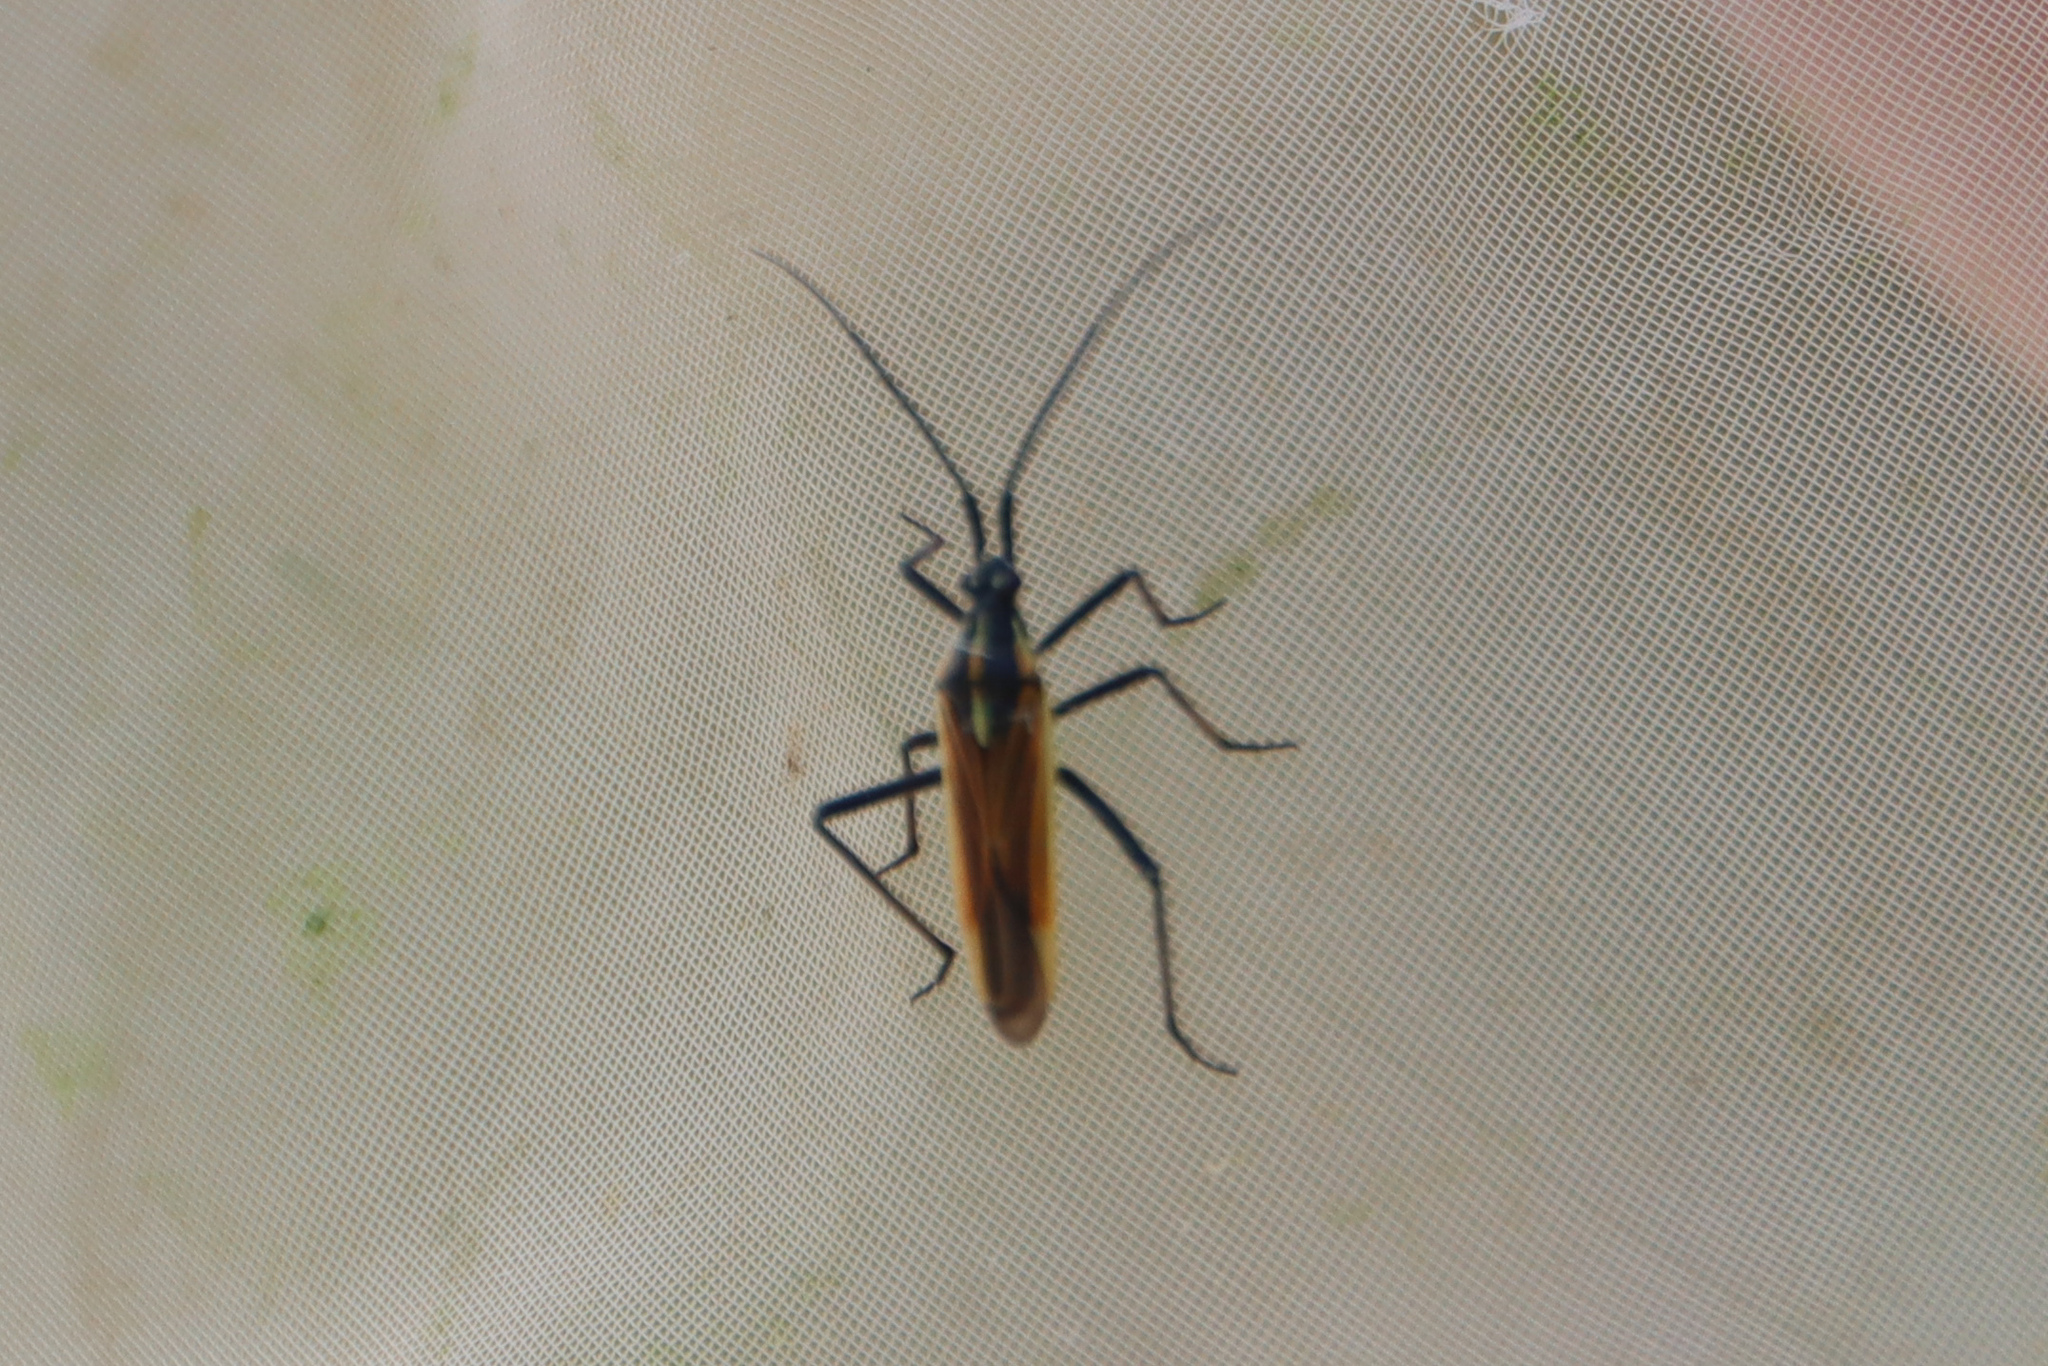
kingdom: Animalia
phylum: Arthropoda
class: Insecta
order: Hemiptera
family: Miridae
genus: Leptopterna
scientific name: Leptopterna dolabrata
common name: Meadow plant bug
